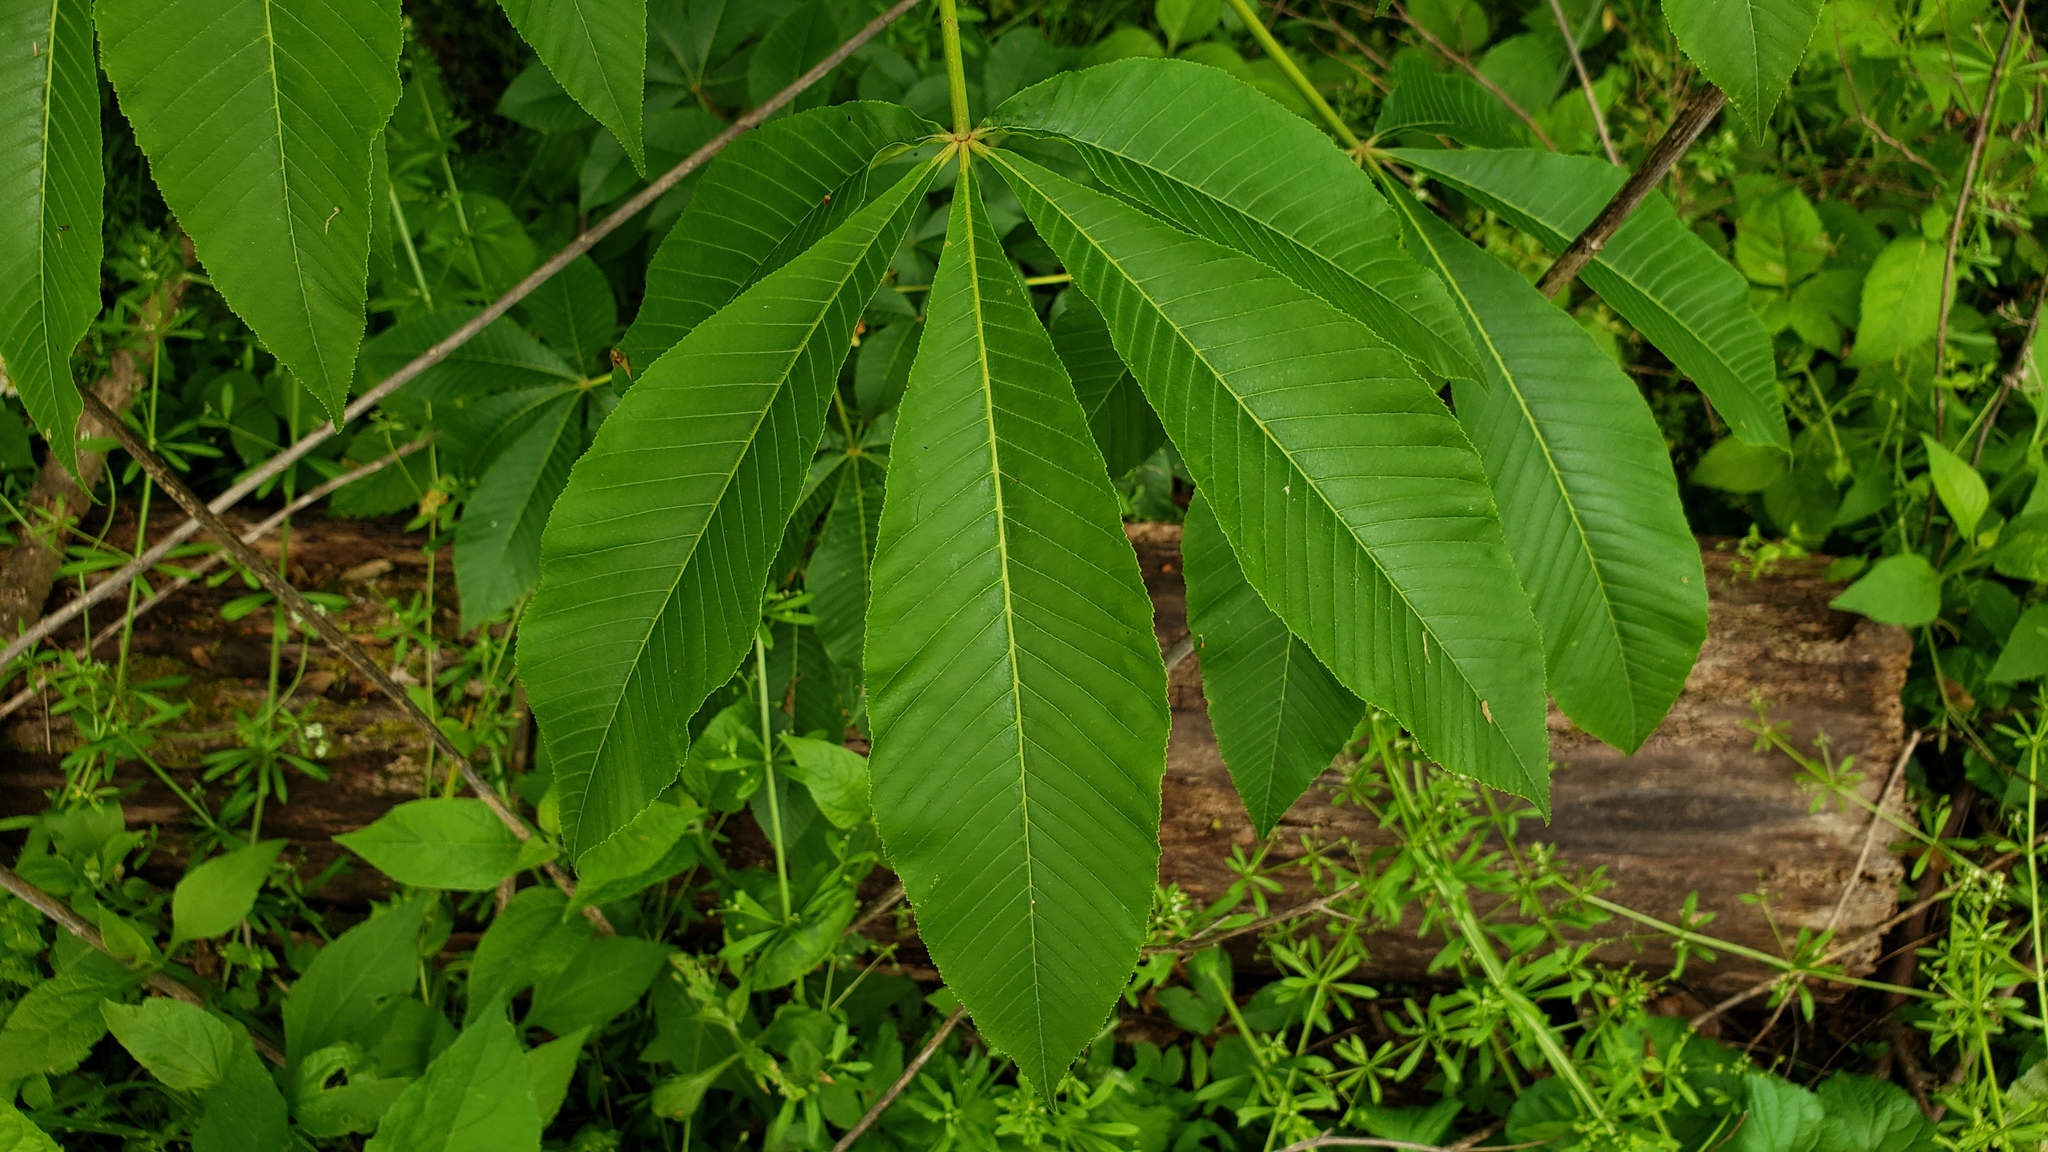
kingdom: Plantae
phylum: Tracheophyta
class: Magnoliopsida
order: Sapindales
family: Sapindaceae
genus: Aesculus
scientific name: Aesculus flava
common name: Yellow buckeye
